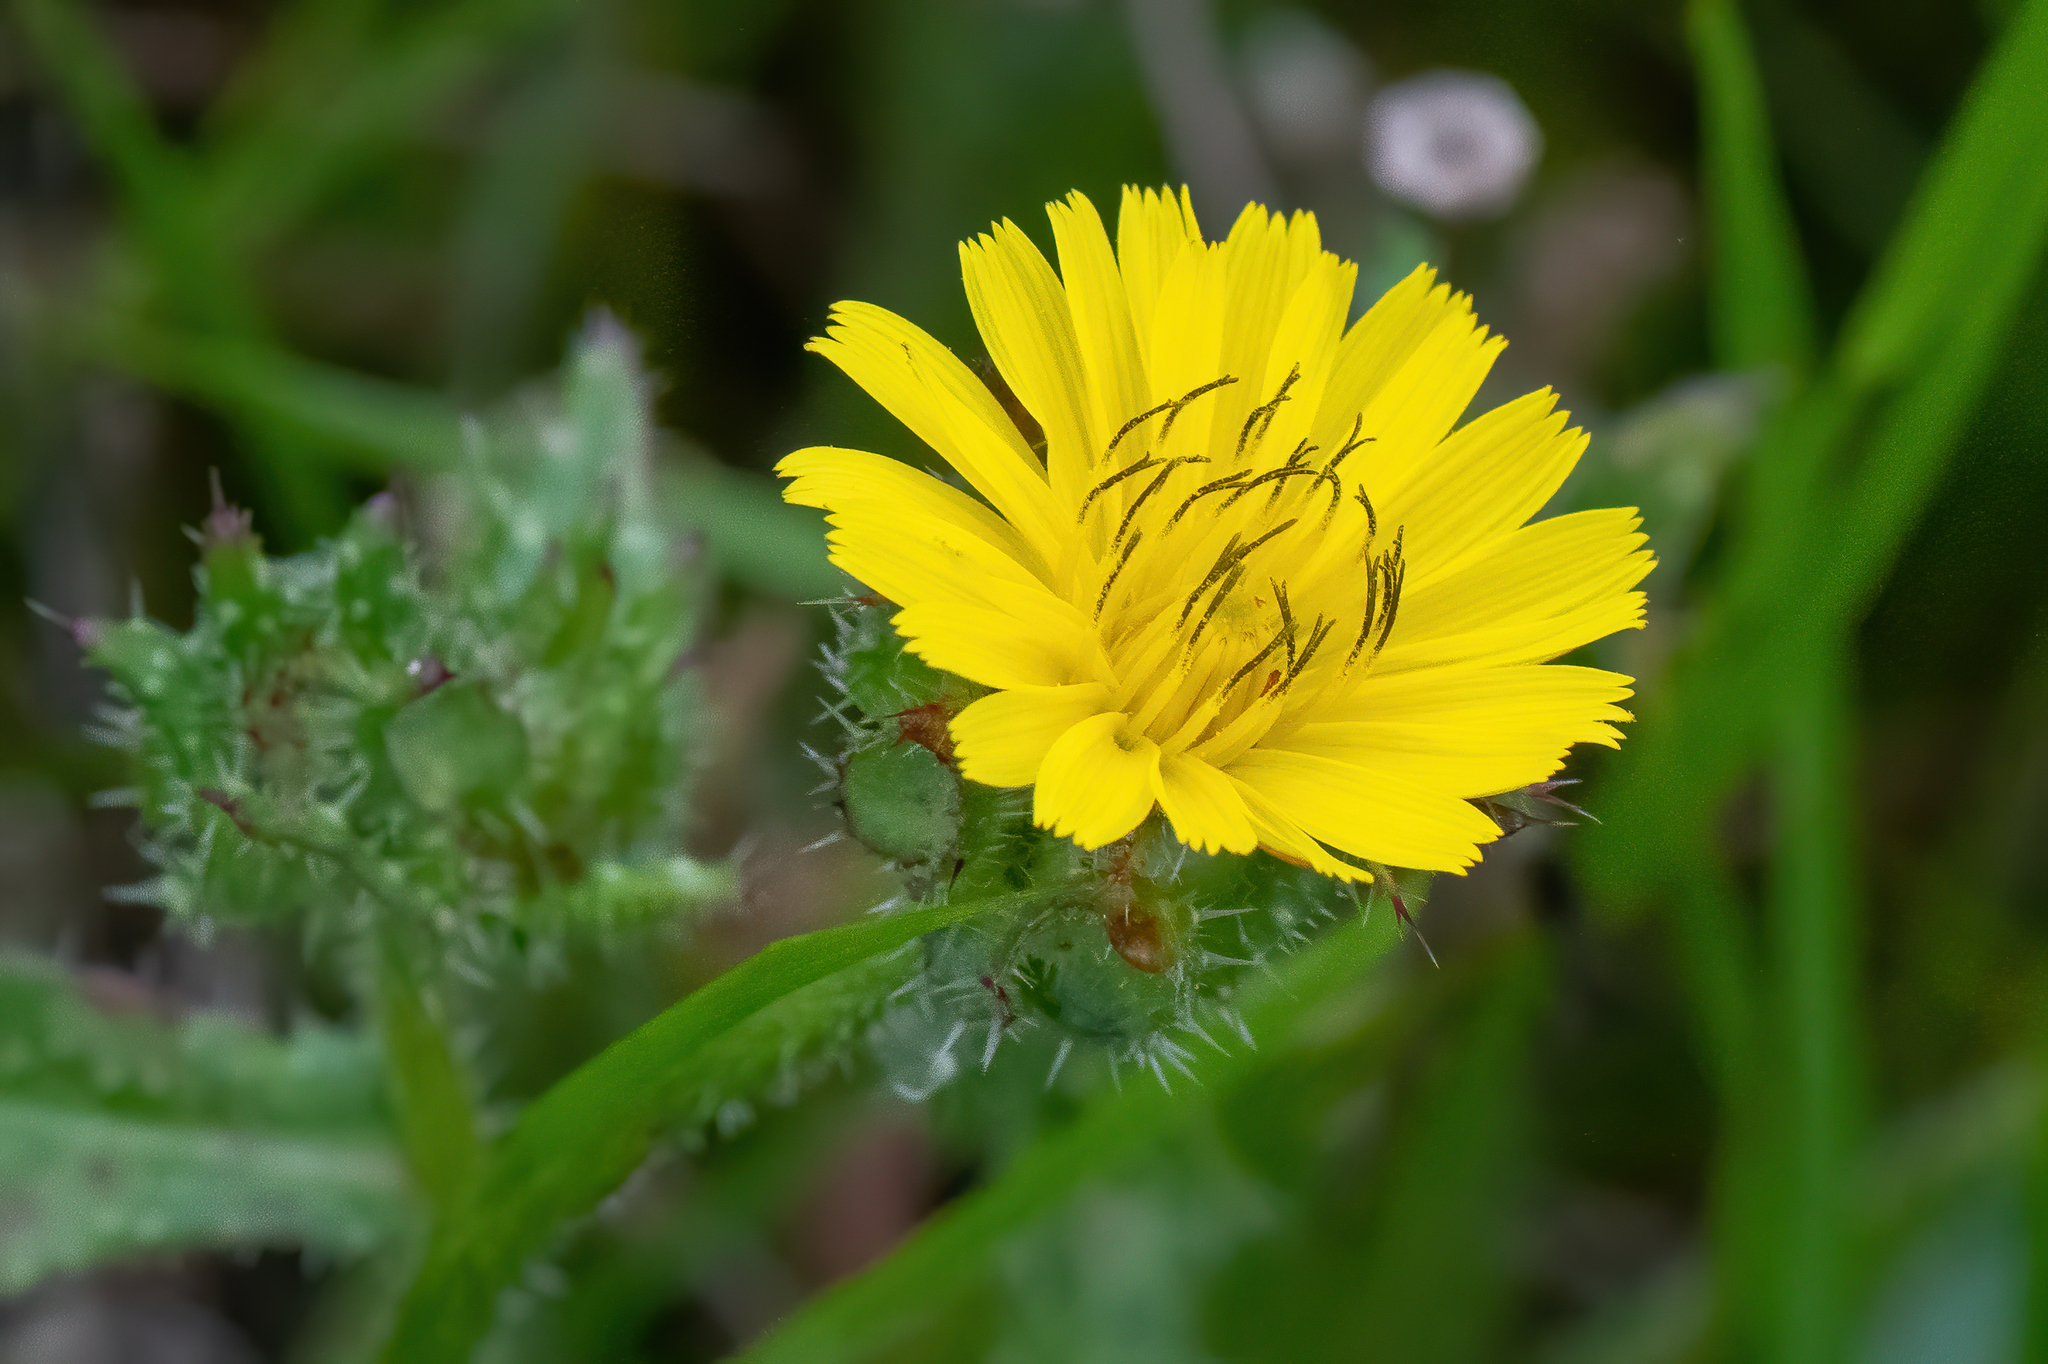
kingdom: Plantae
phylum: Tracheophyta
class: Magnoliopsida
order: Asterales
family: Asteraceae
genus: Helminthotheca
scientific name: Helminthotheca echioides
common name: Ox-tongue
